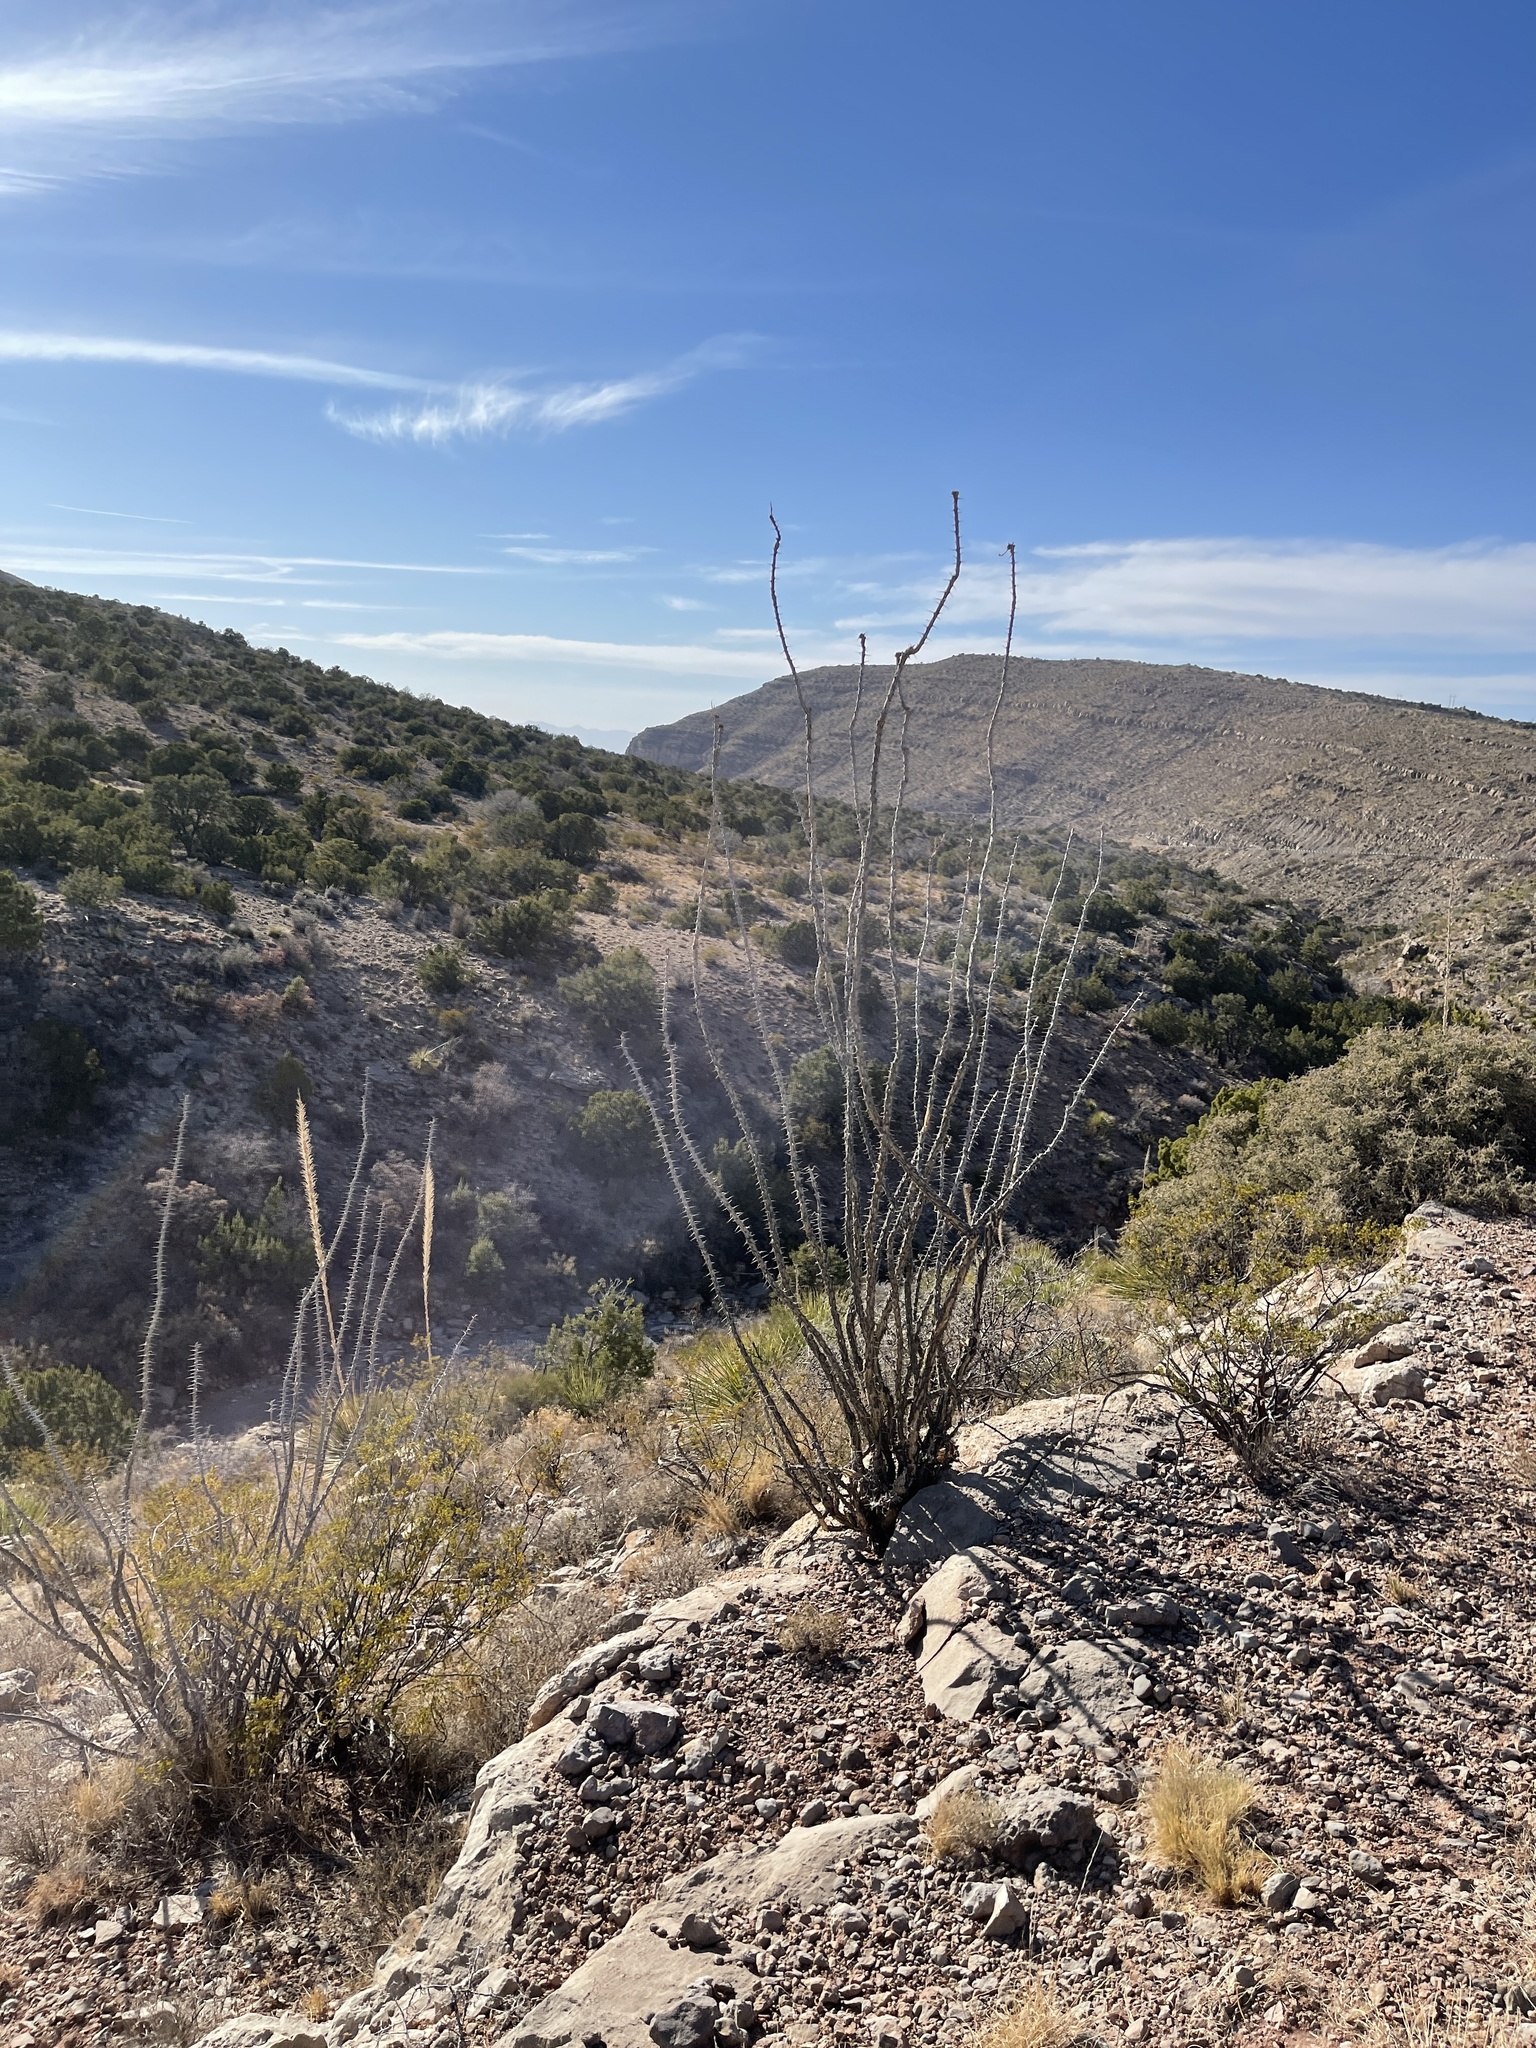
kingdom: Plantae
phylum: Tracheophyta
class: Magnoliopsida
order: Ericales
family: Fouquieriaceae
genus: Fouquieria
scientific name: Fouquieria splendens
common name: Vine-cactus
